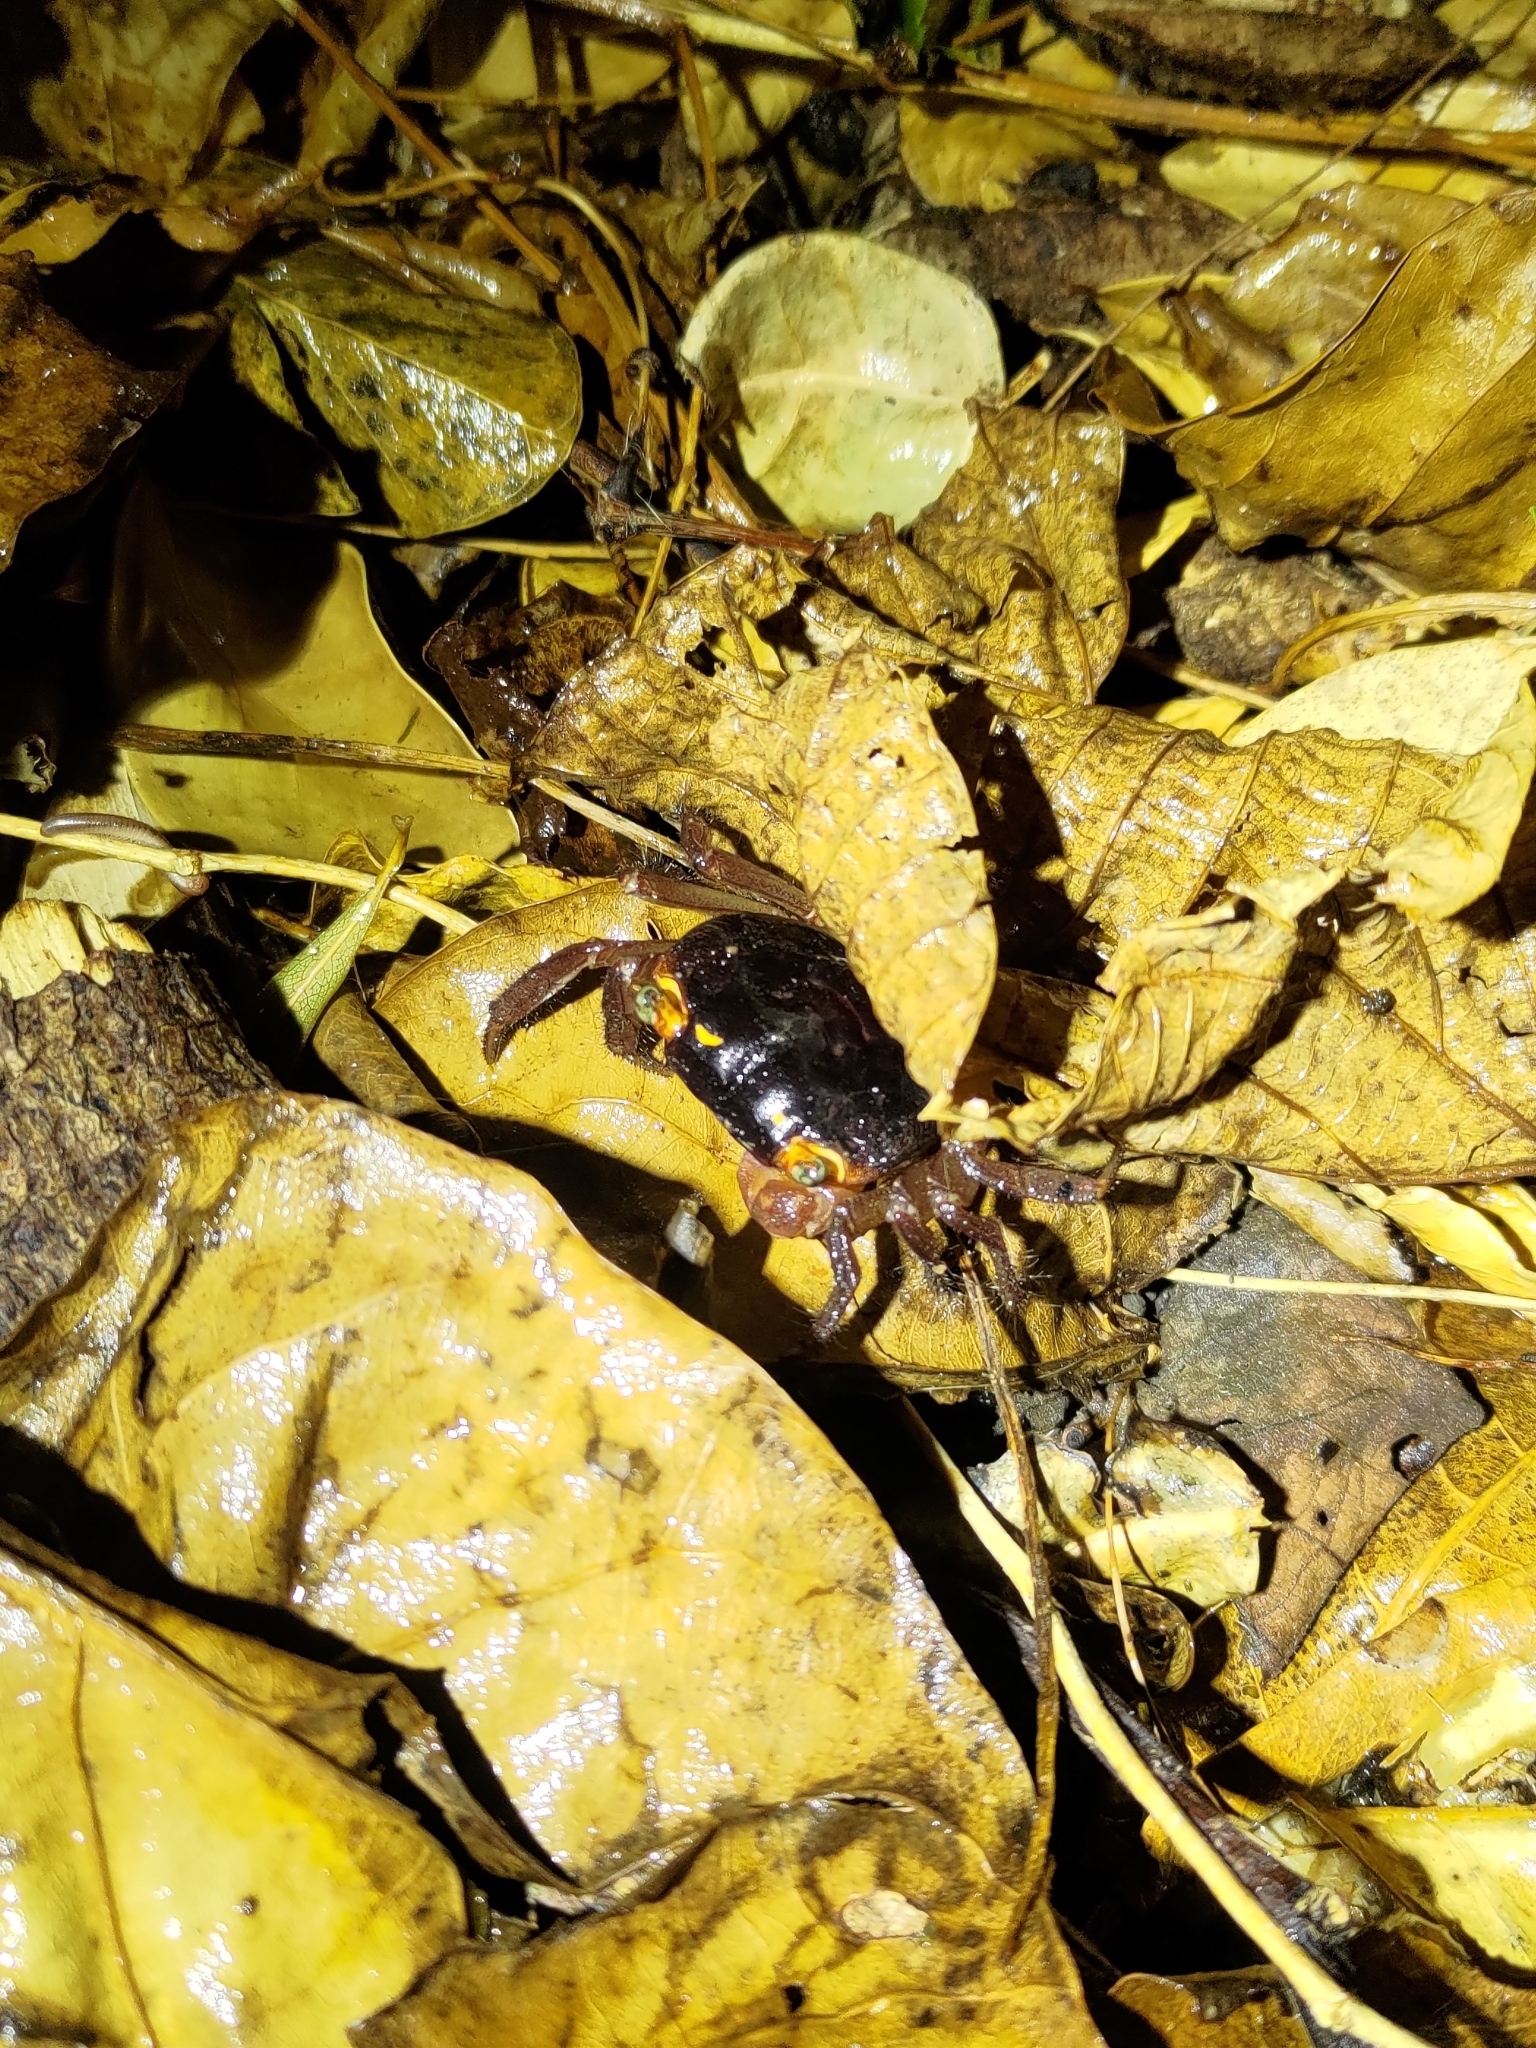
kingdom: Animalia
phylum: Arthropoda
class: Malacostraca
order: Decapoda
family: Sesarmidae
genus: Metasesarma
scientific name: Metasesarma aubryi
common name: Apple crab
